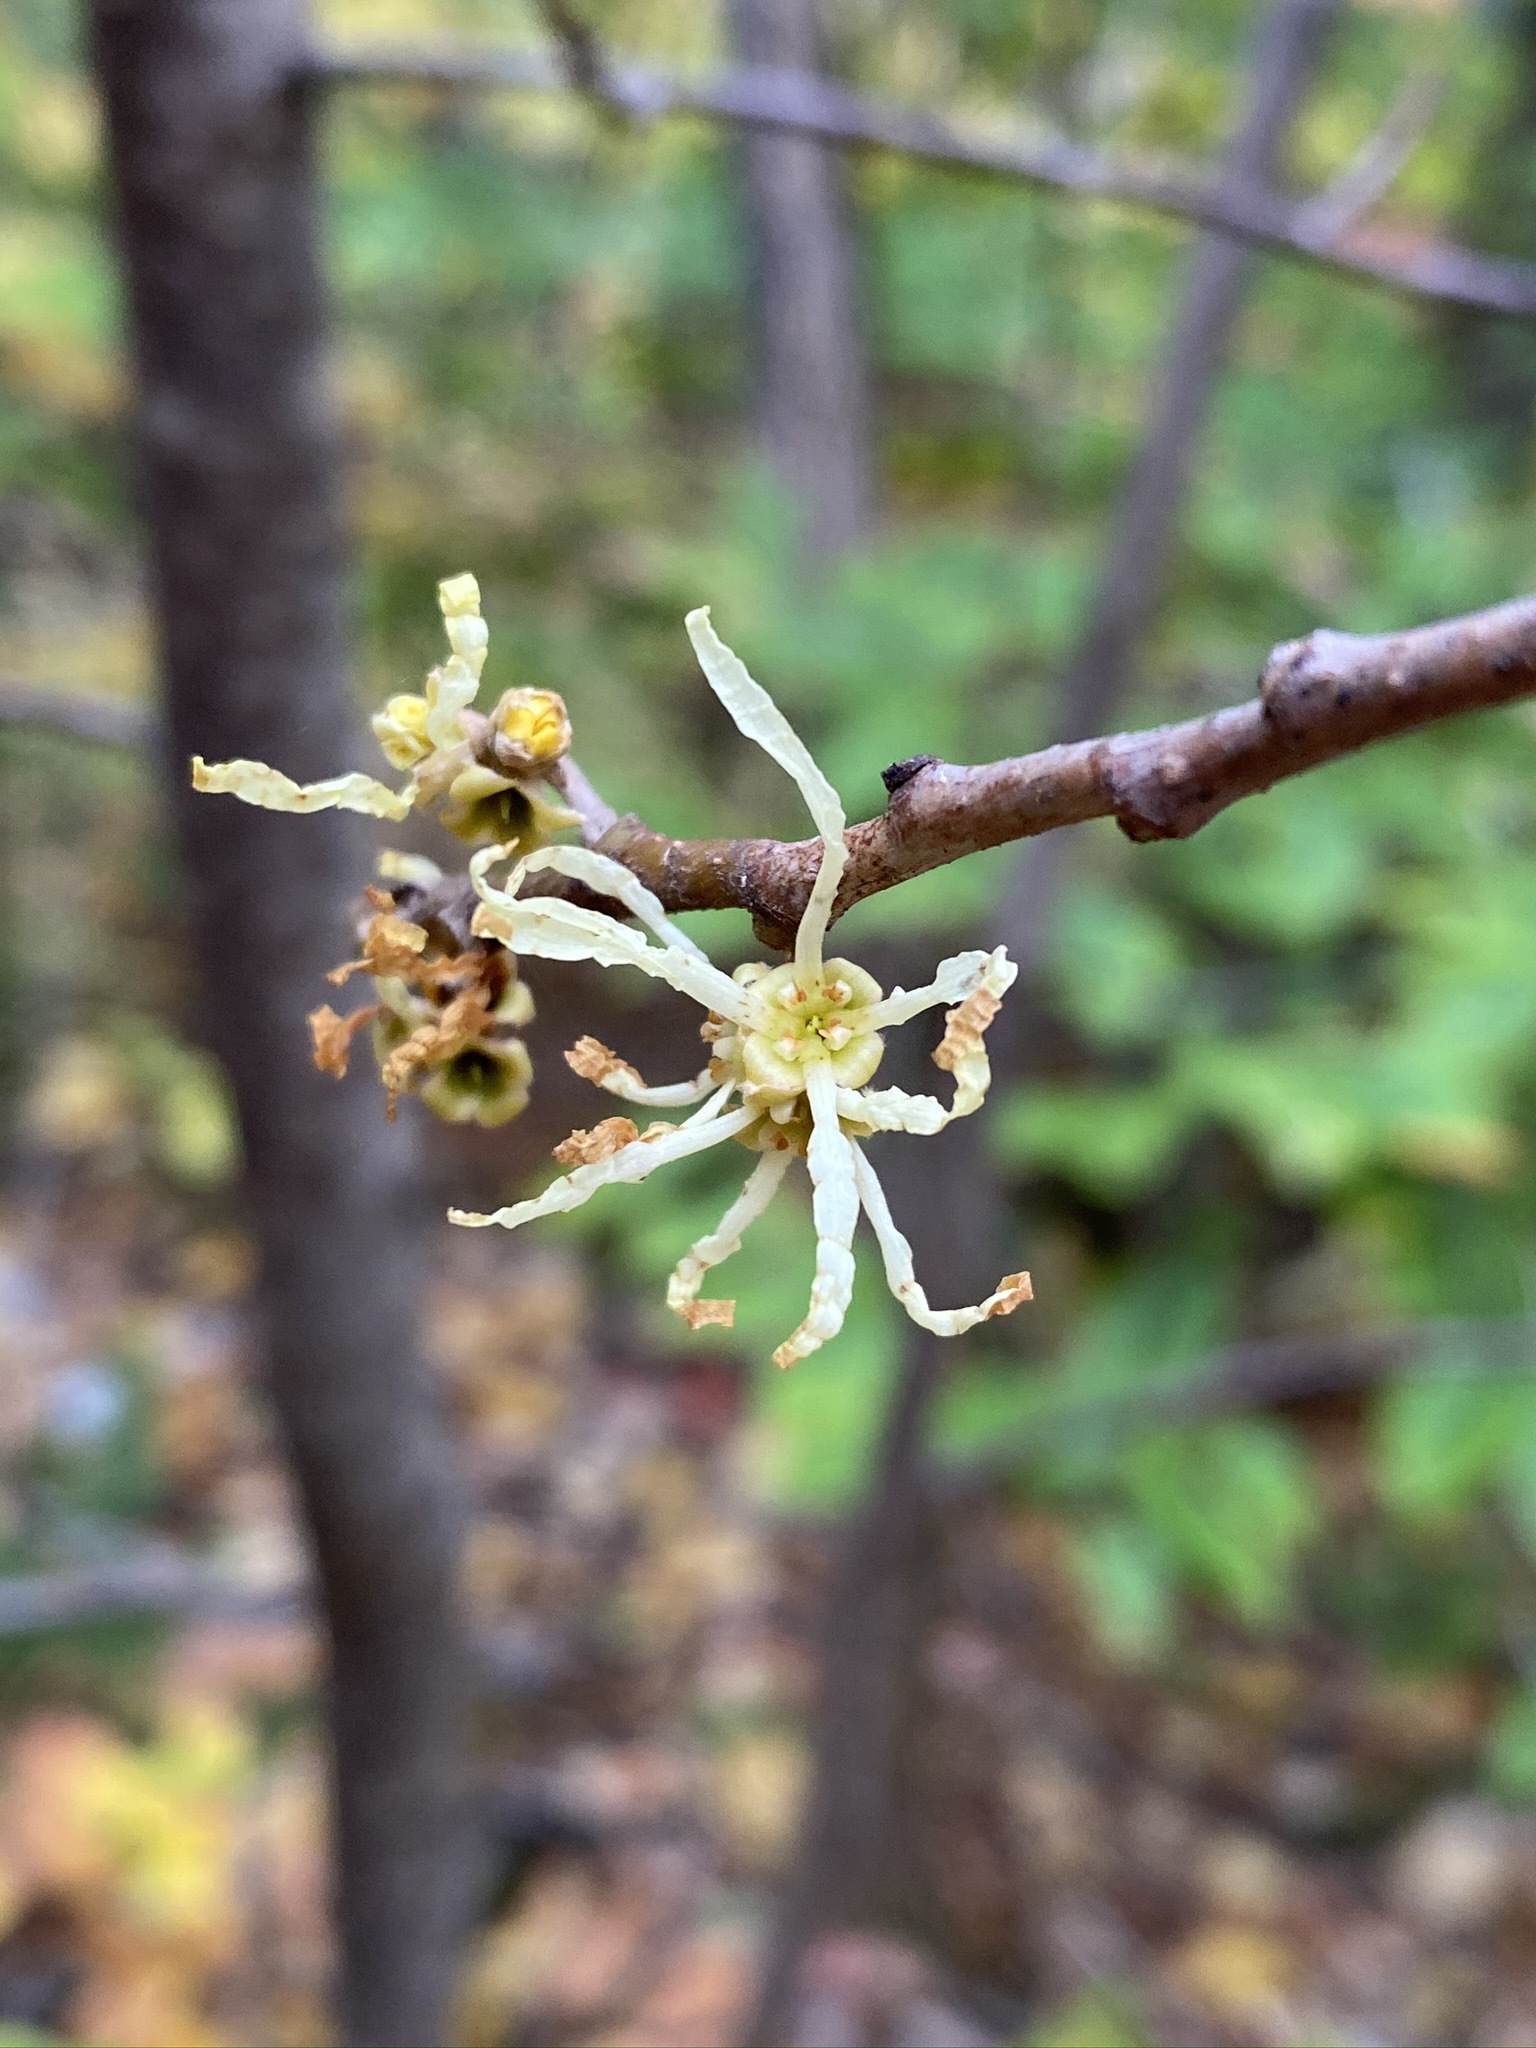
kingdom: Plantae
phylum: Tracheophyta
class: Magnoliopsida
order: Saxifragales
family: Hamamelidaceae
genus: Hamamelis
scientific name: Hamamelis virginiana
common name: Witch-hazel
